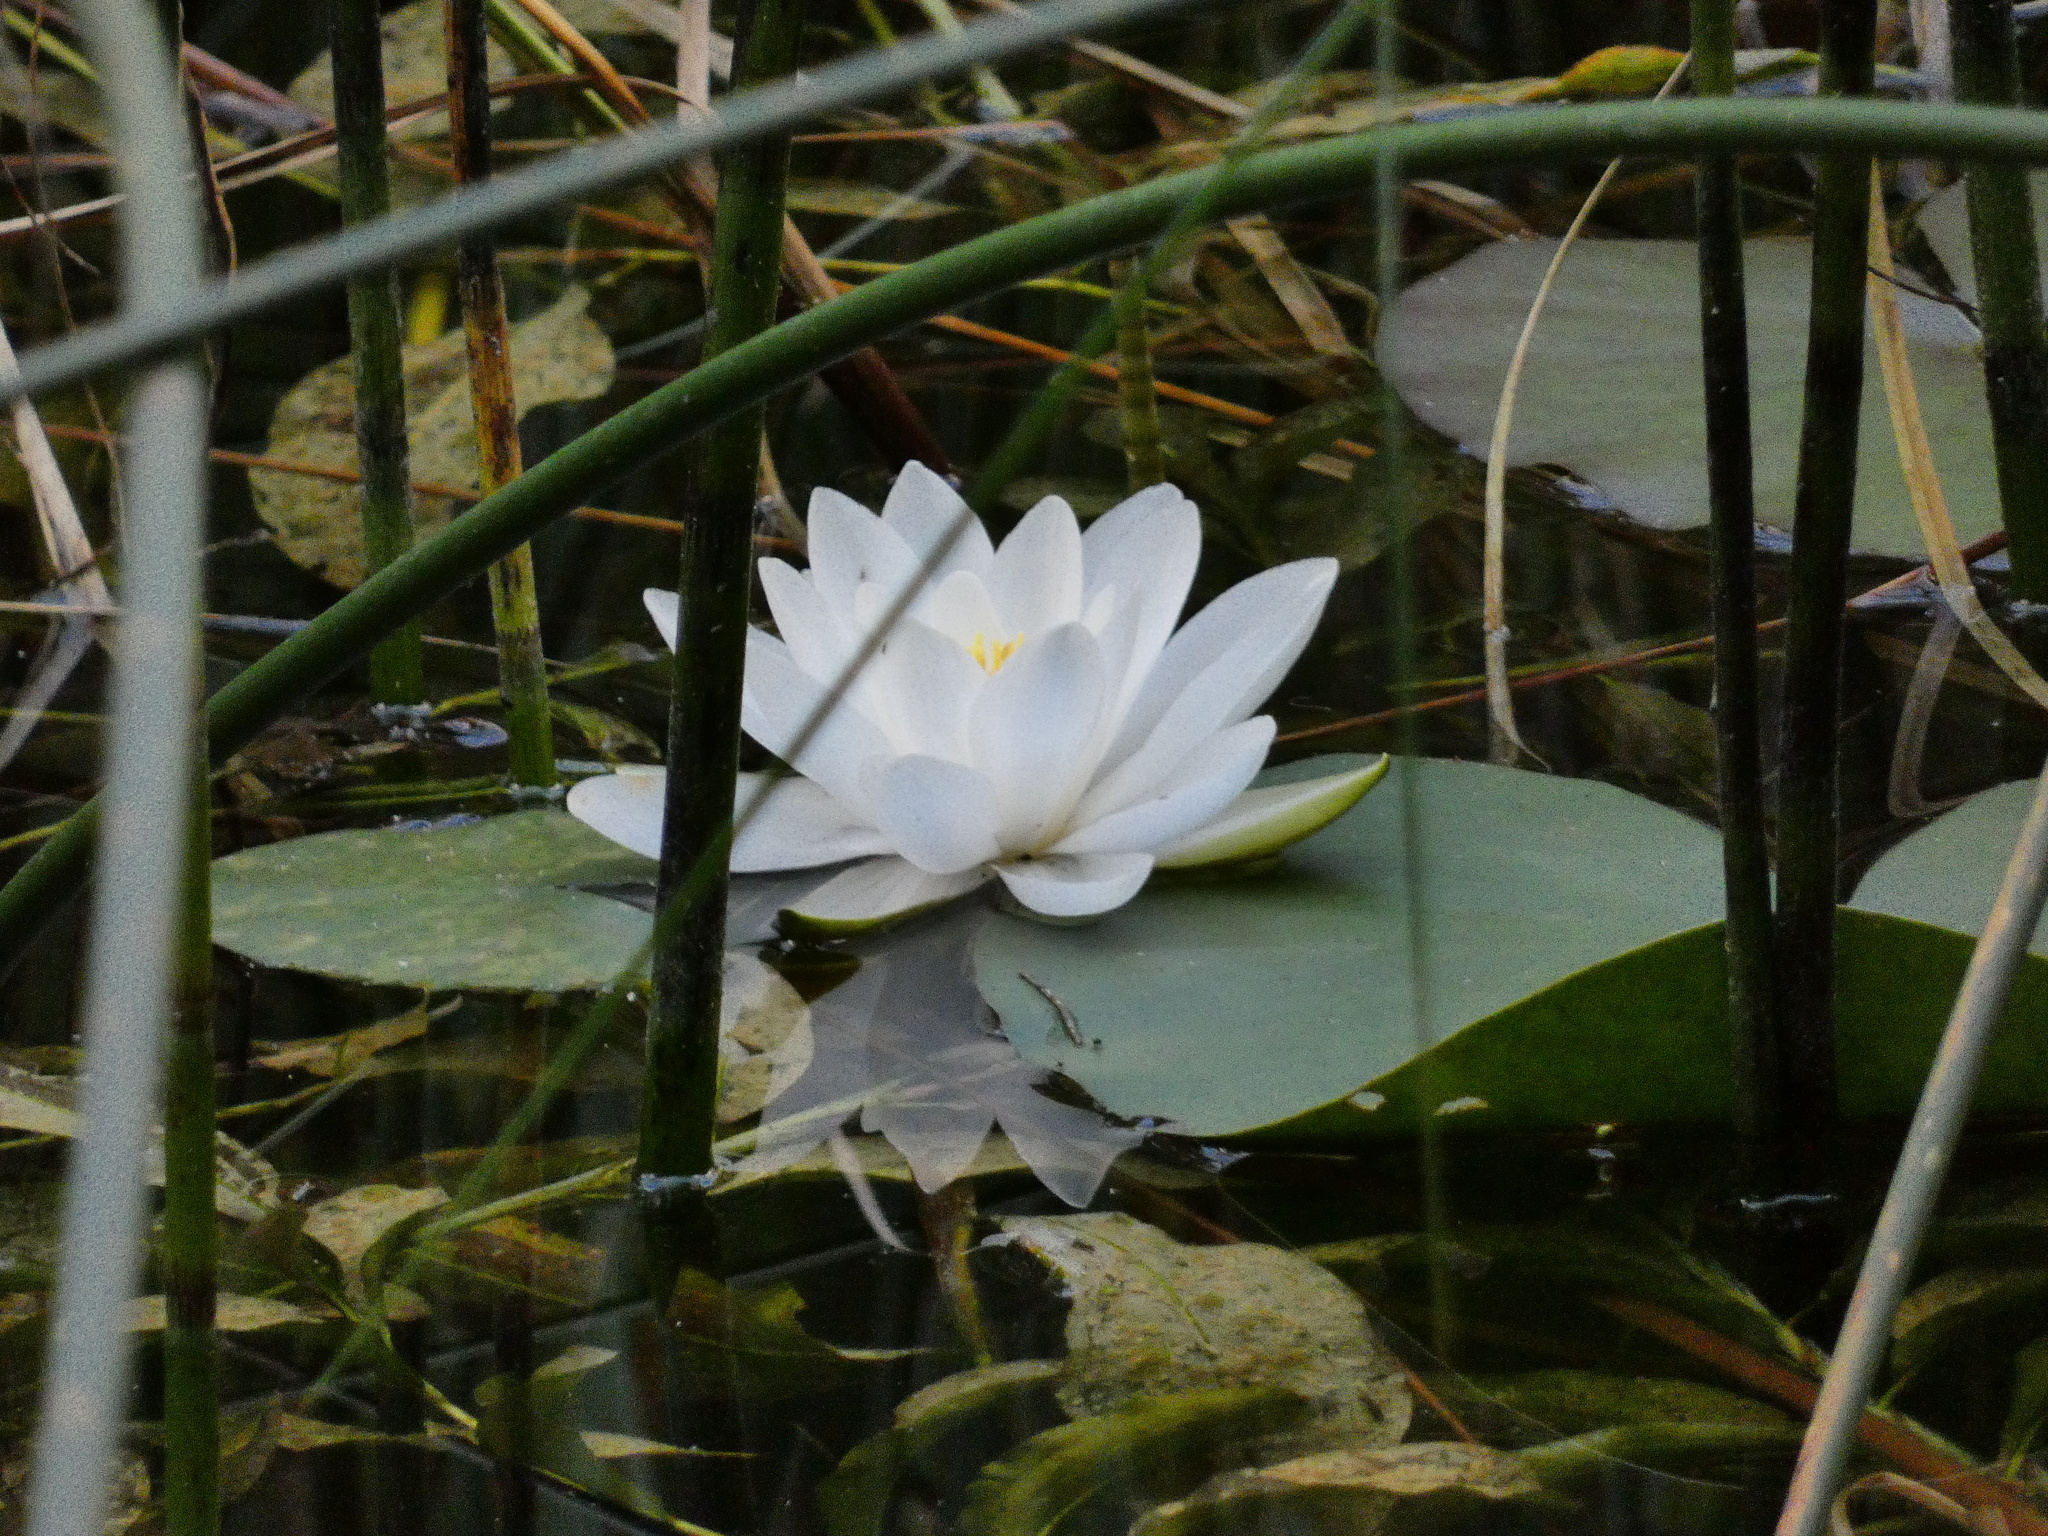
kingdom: Plantae
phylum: Tracheophyta
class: Magnoliopsida
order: Nymphaeales
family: Nymphaeaceae
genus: Nymphaea
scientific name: Nymphaea alba
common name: White water-lily
